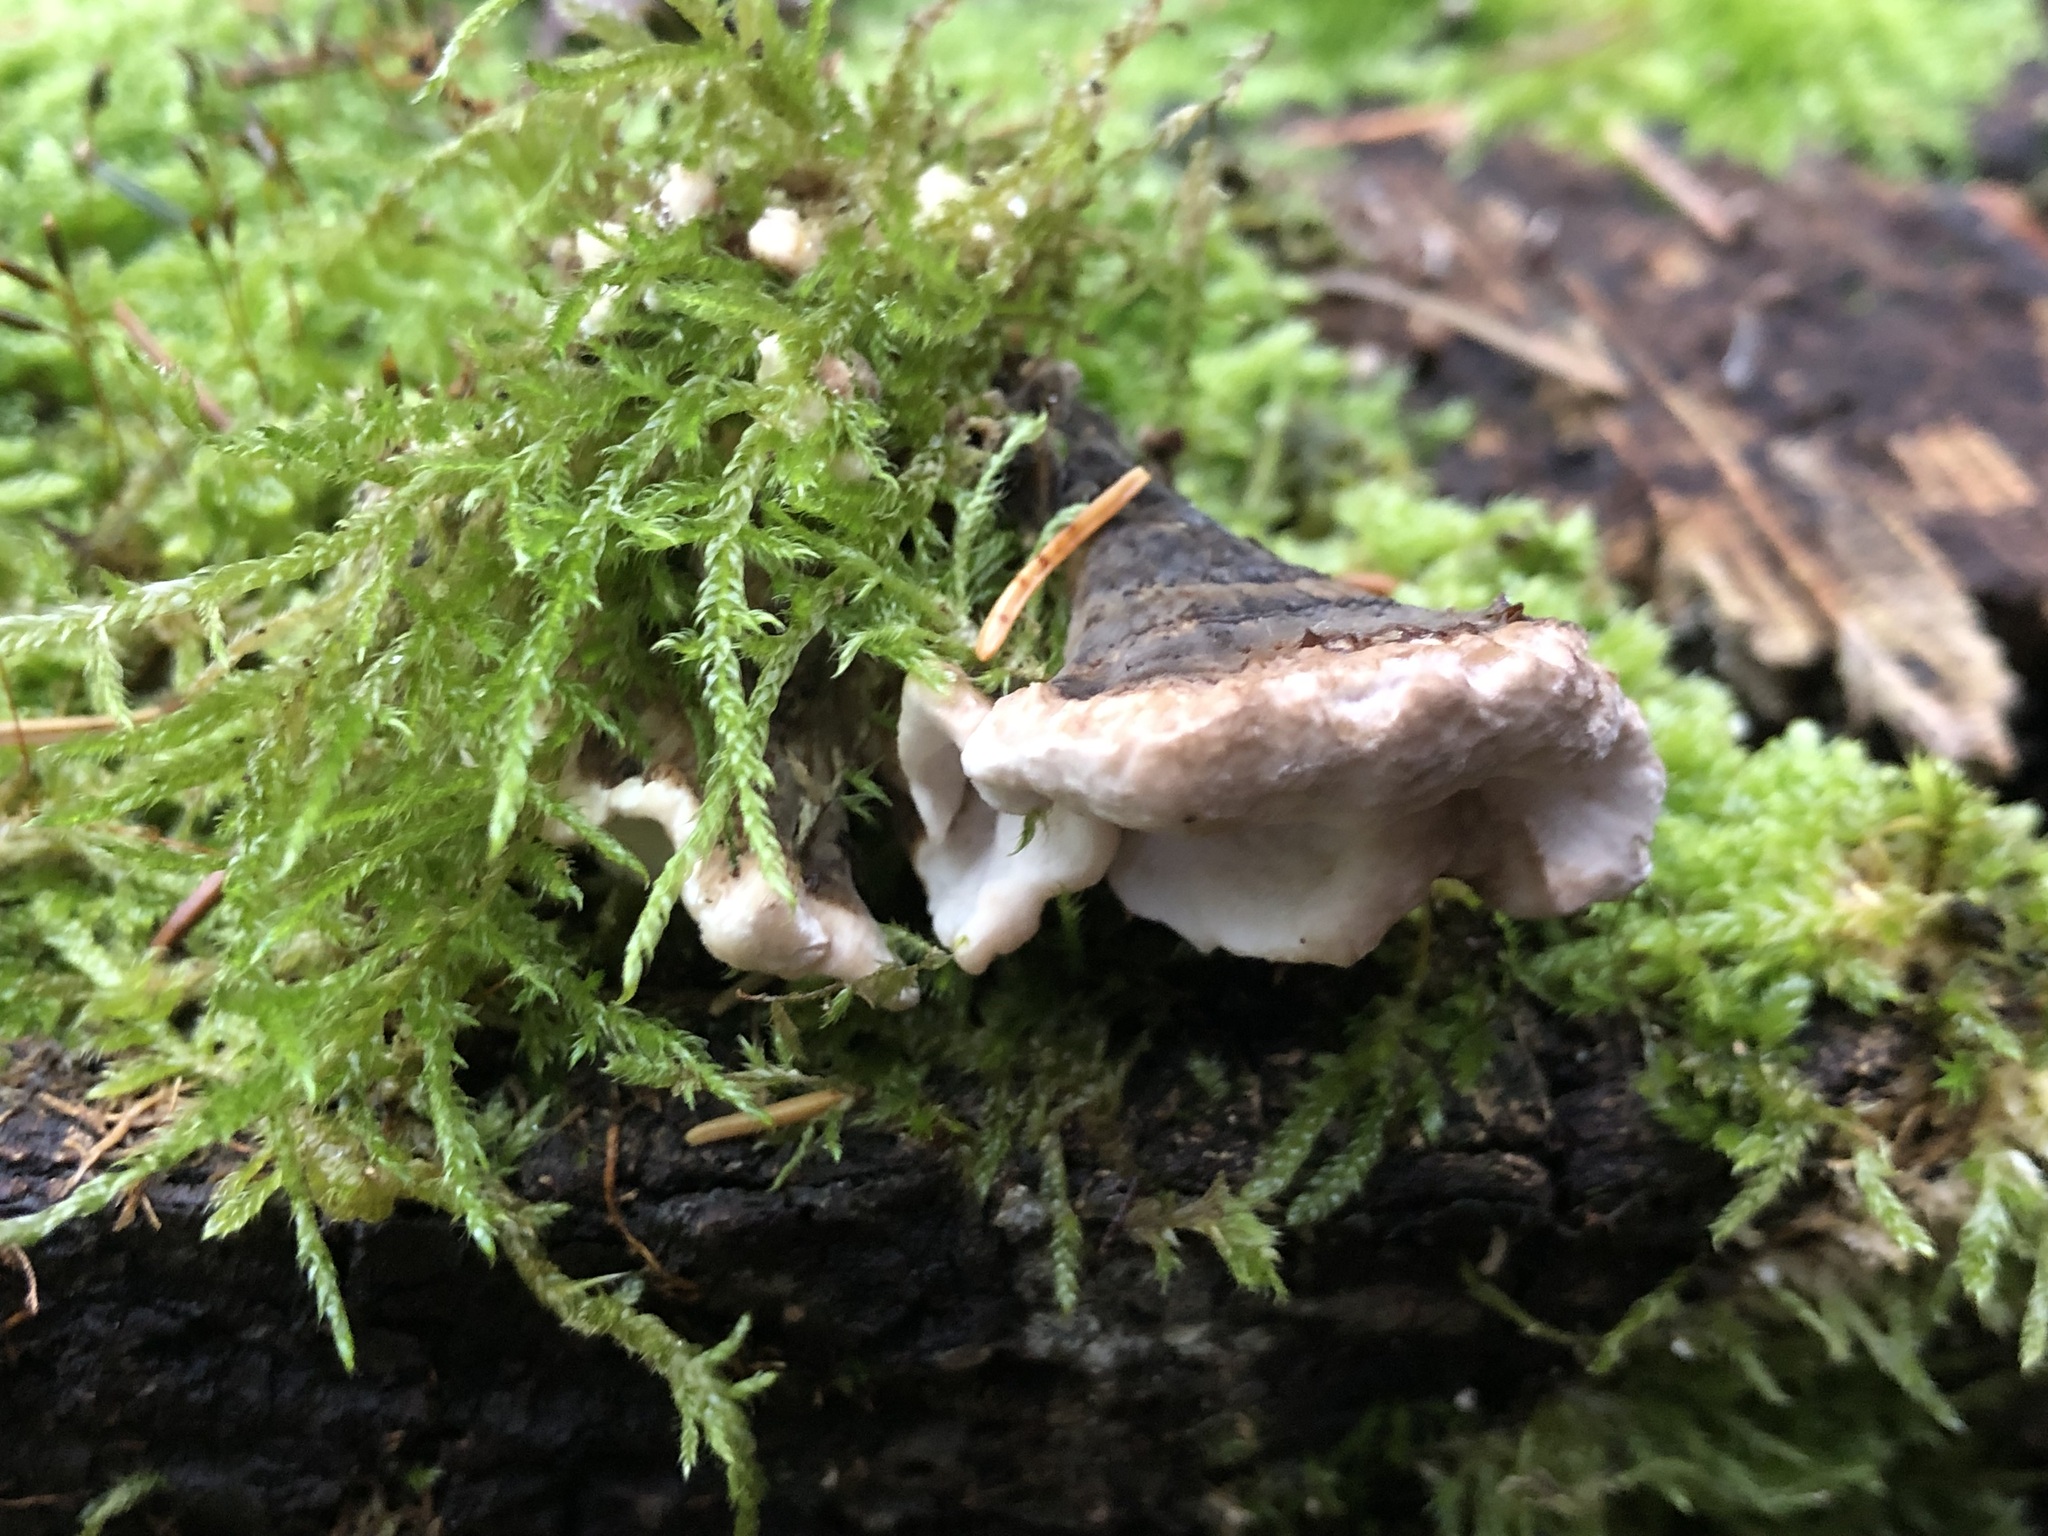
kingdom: Fungi
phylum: Basidiomycota
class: Agaricomycetes
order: Polyporales
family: Polyporaceae
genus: Trametes
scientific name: Trametes versicolor
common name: Turkeytail
